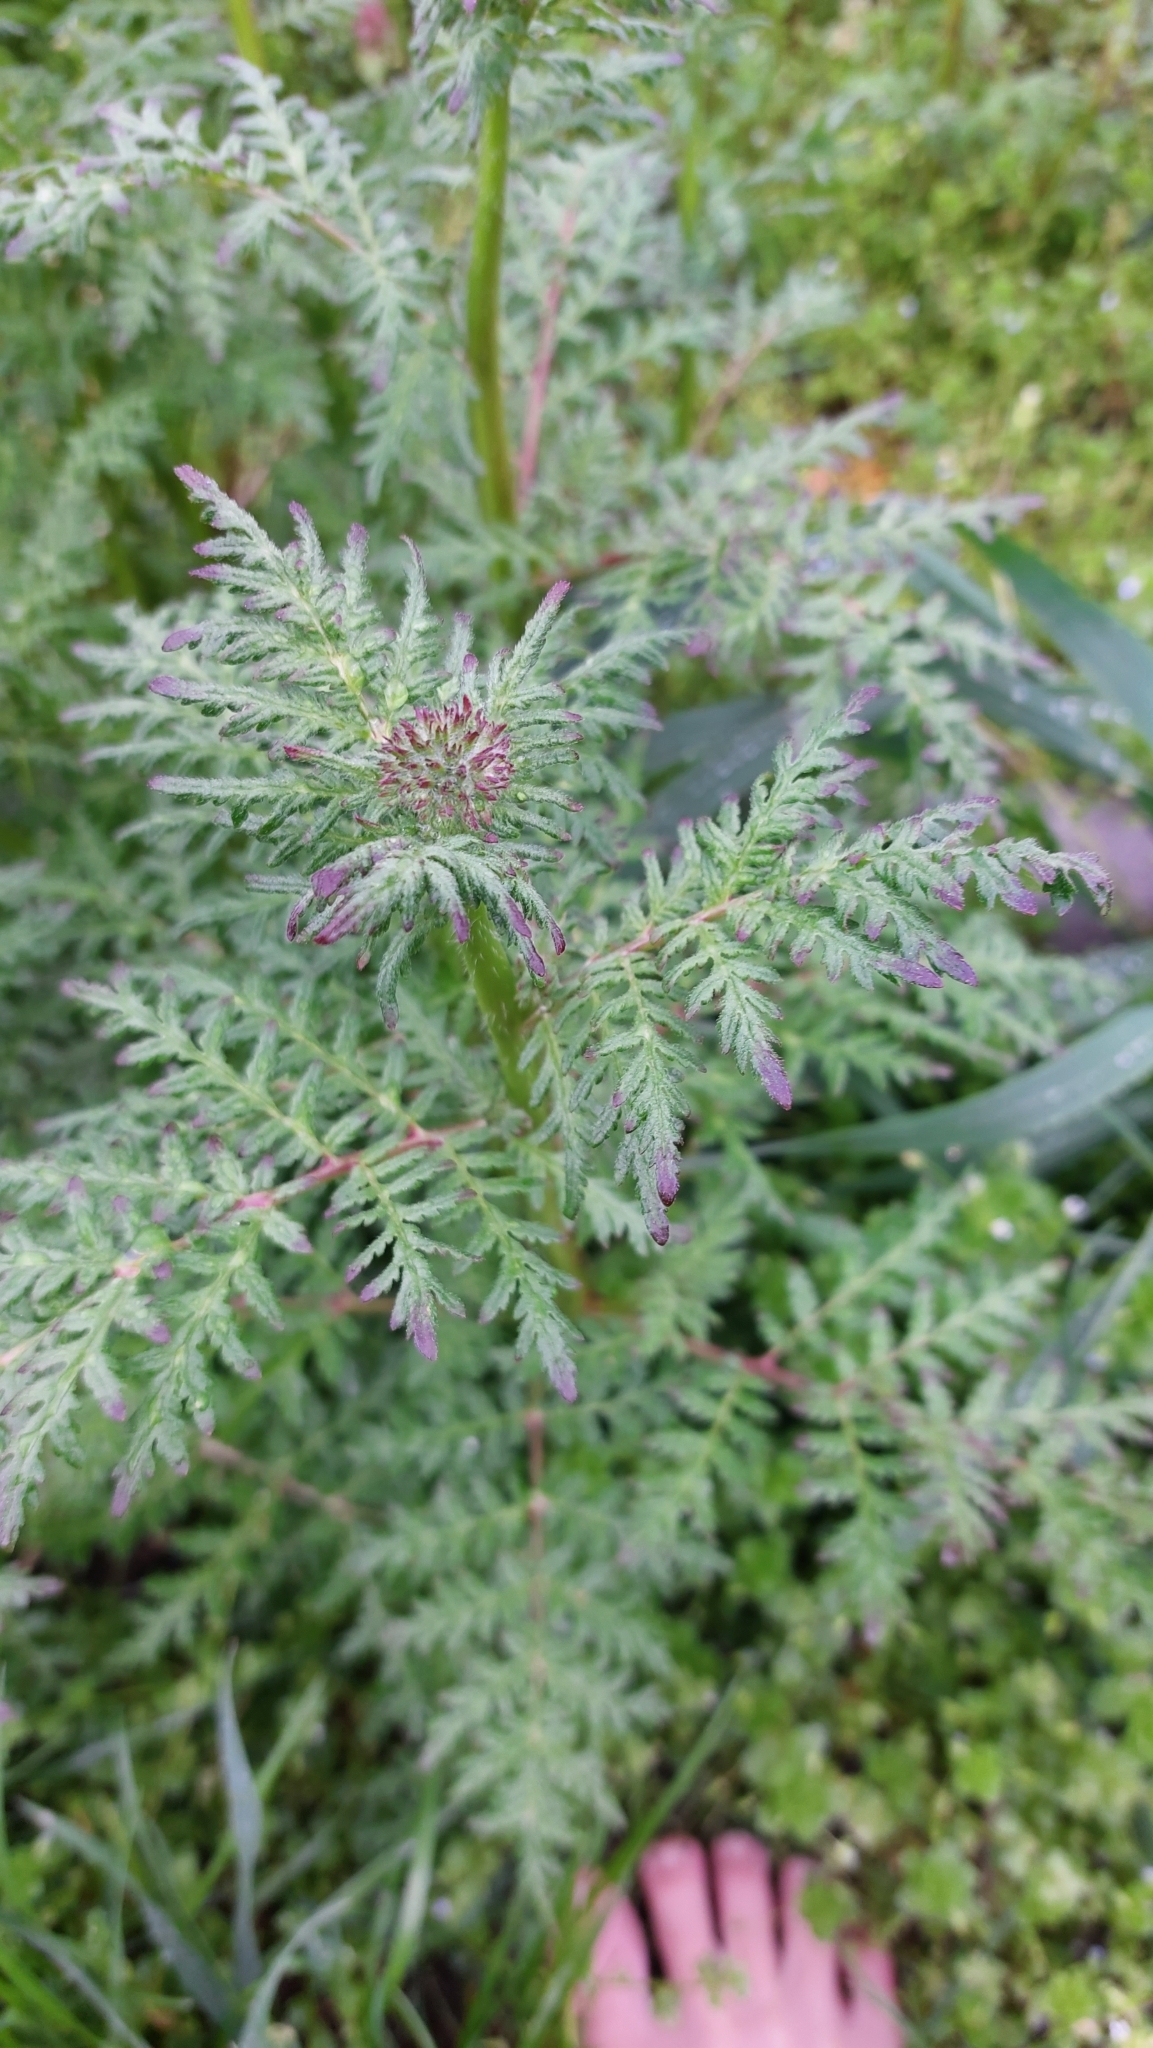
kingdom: Plantae
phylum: Tracheophyta
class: Magnoliopsida
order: Boraginales
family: Hydrophyllaceae
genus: Phacelia
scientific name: Phacelia tanacetifolia
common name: Phacelia
